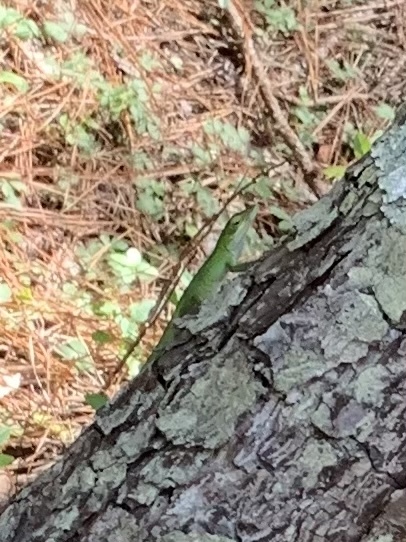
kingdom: Animalia
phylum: Chordata
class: Squamata
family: Dactyloidae
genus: Anolis
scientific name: Anolis carolinensis
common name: Green anole
